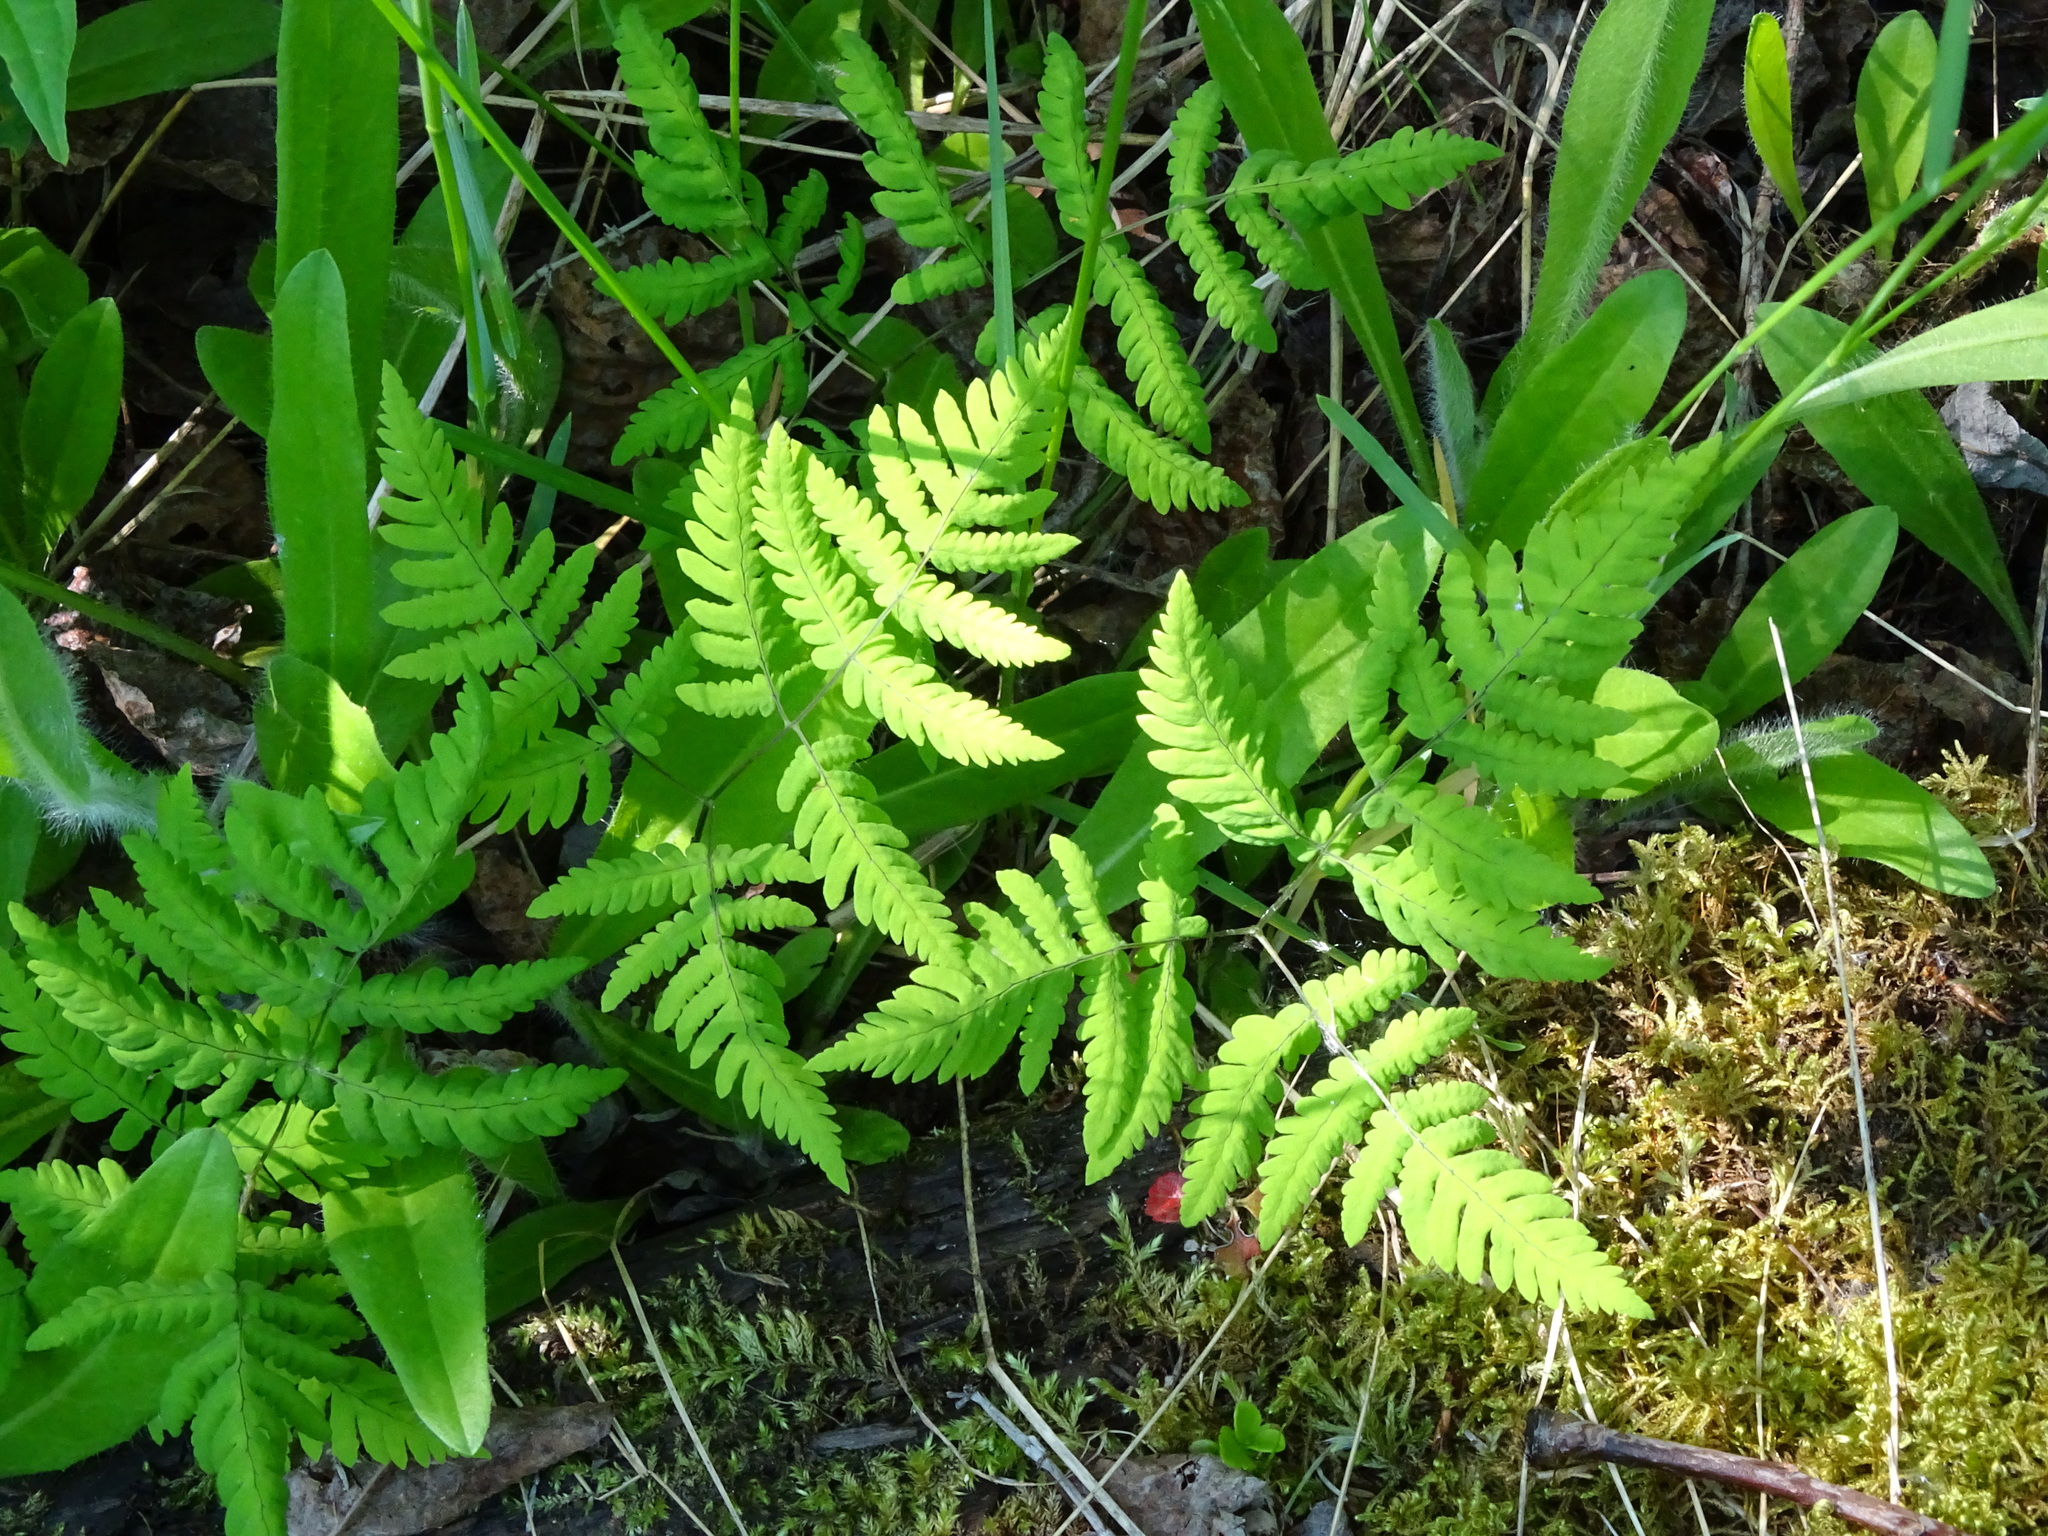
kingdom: Plantae
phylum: Tracheophyta
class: Polypodiopsida
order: Polypodiales
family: Cystopteridaceae
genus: Gymnocarpium
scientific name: Gymnocarpium dryopteris
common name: Oak fern
